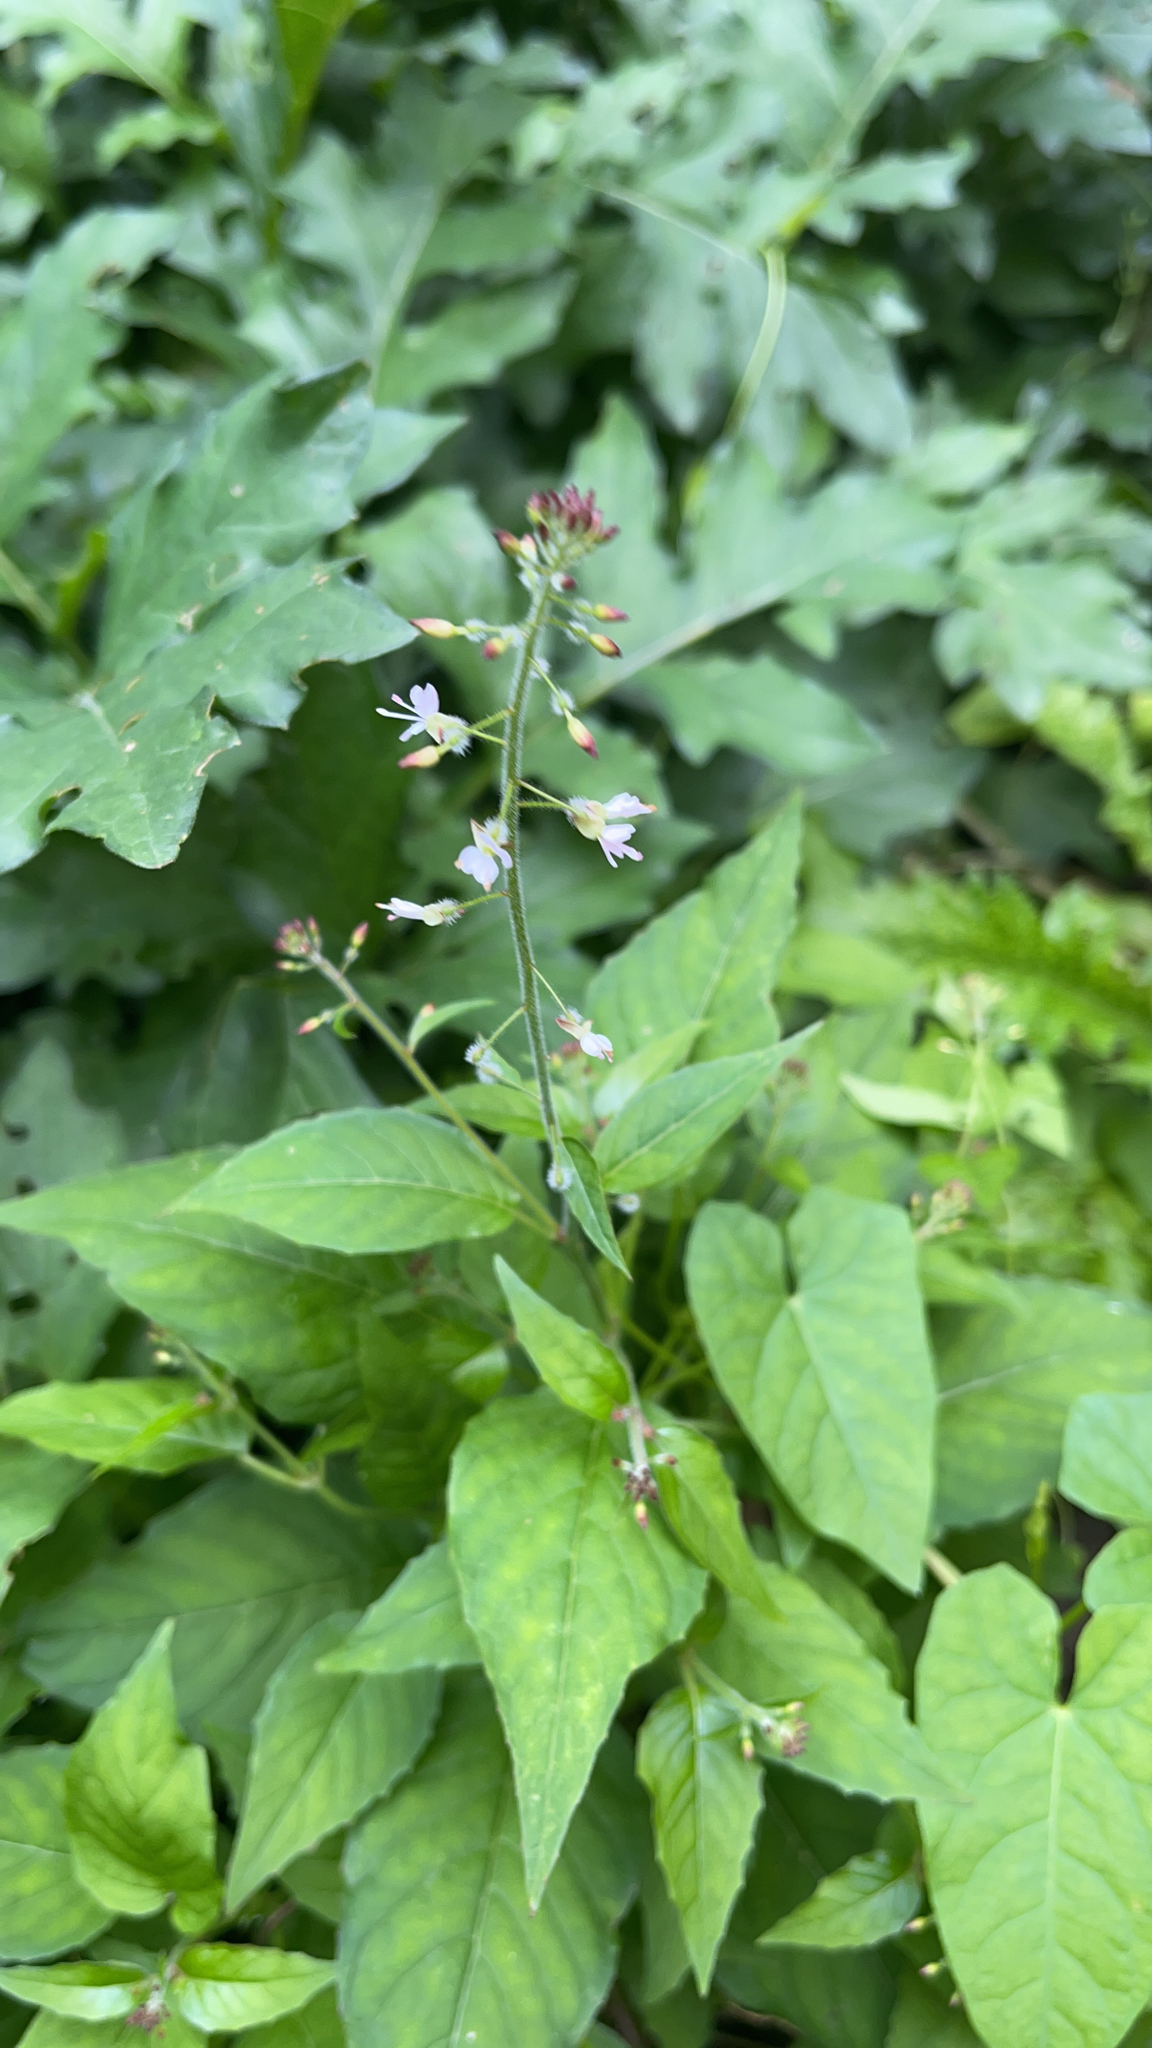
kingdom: Plantae
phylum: Tracheophyta
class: Magnoliopsida
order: Myrtales
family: Onagraceae
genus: Circaea
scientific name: Circaea lutetiana
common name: Enchanter's-nightshade
